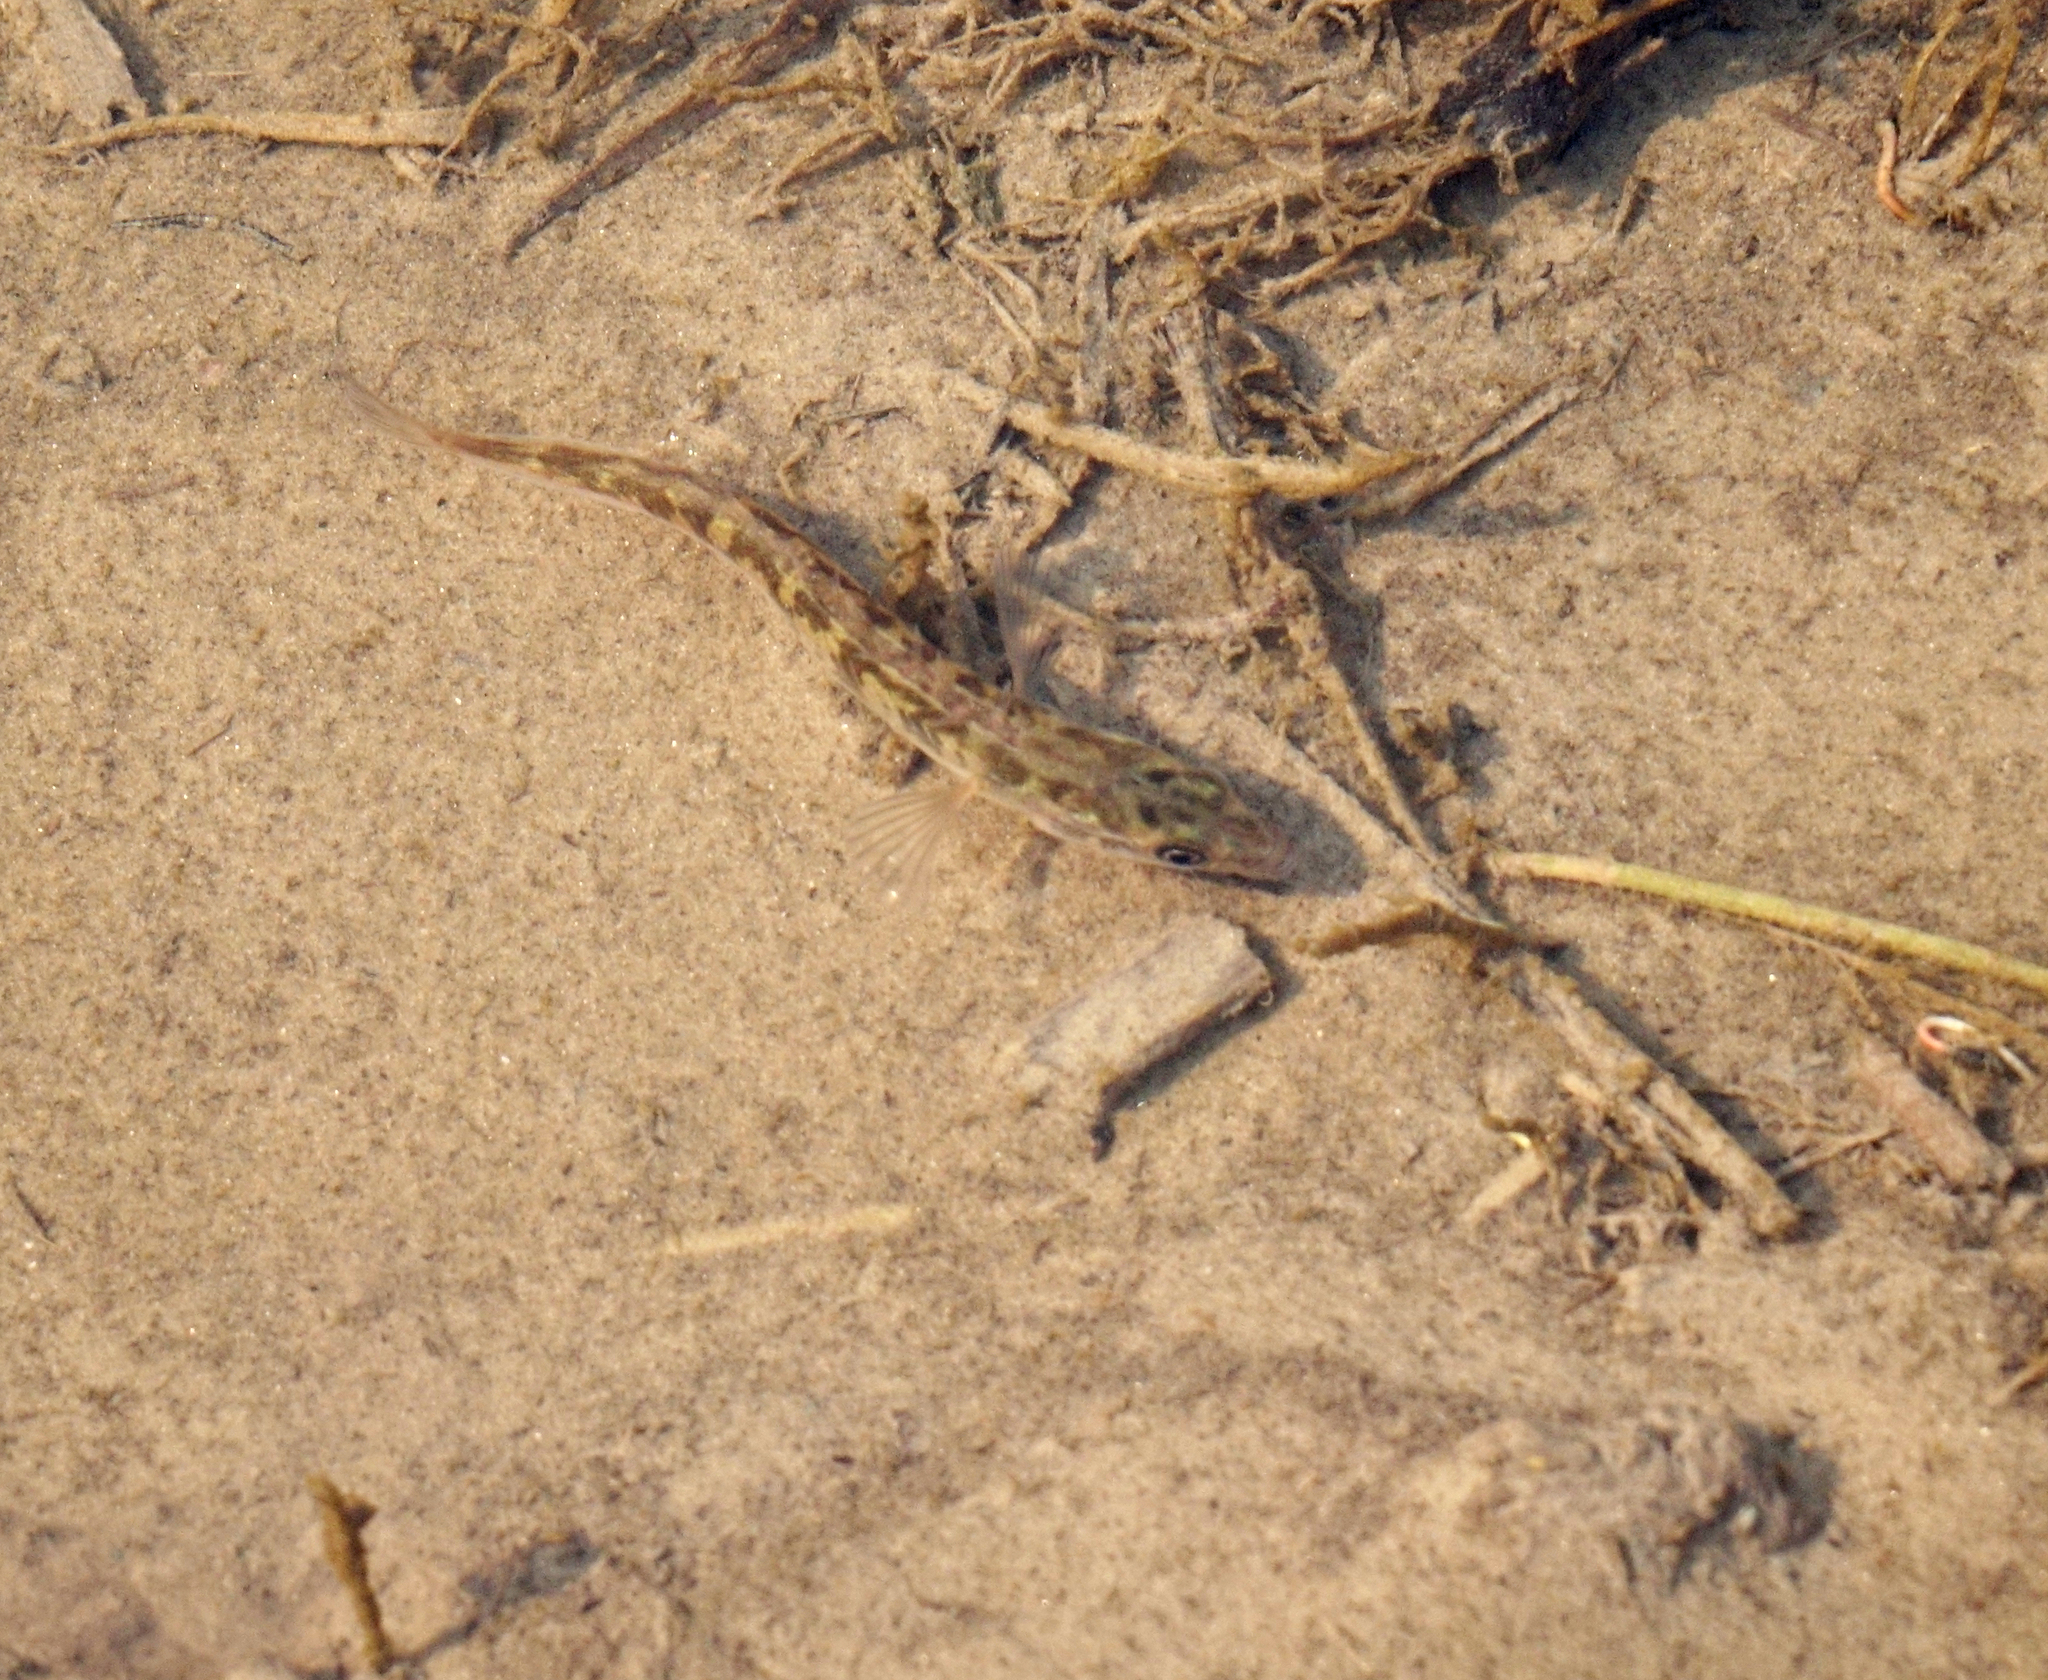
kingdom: Animalia
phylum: Chordata
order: Gasterosteiformes
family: Gasterosteidae
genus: Pungitius
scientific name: Pungitius pungitius
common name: Nine-spined stickleback
